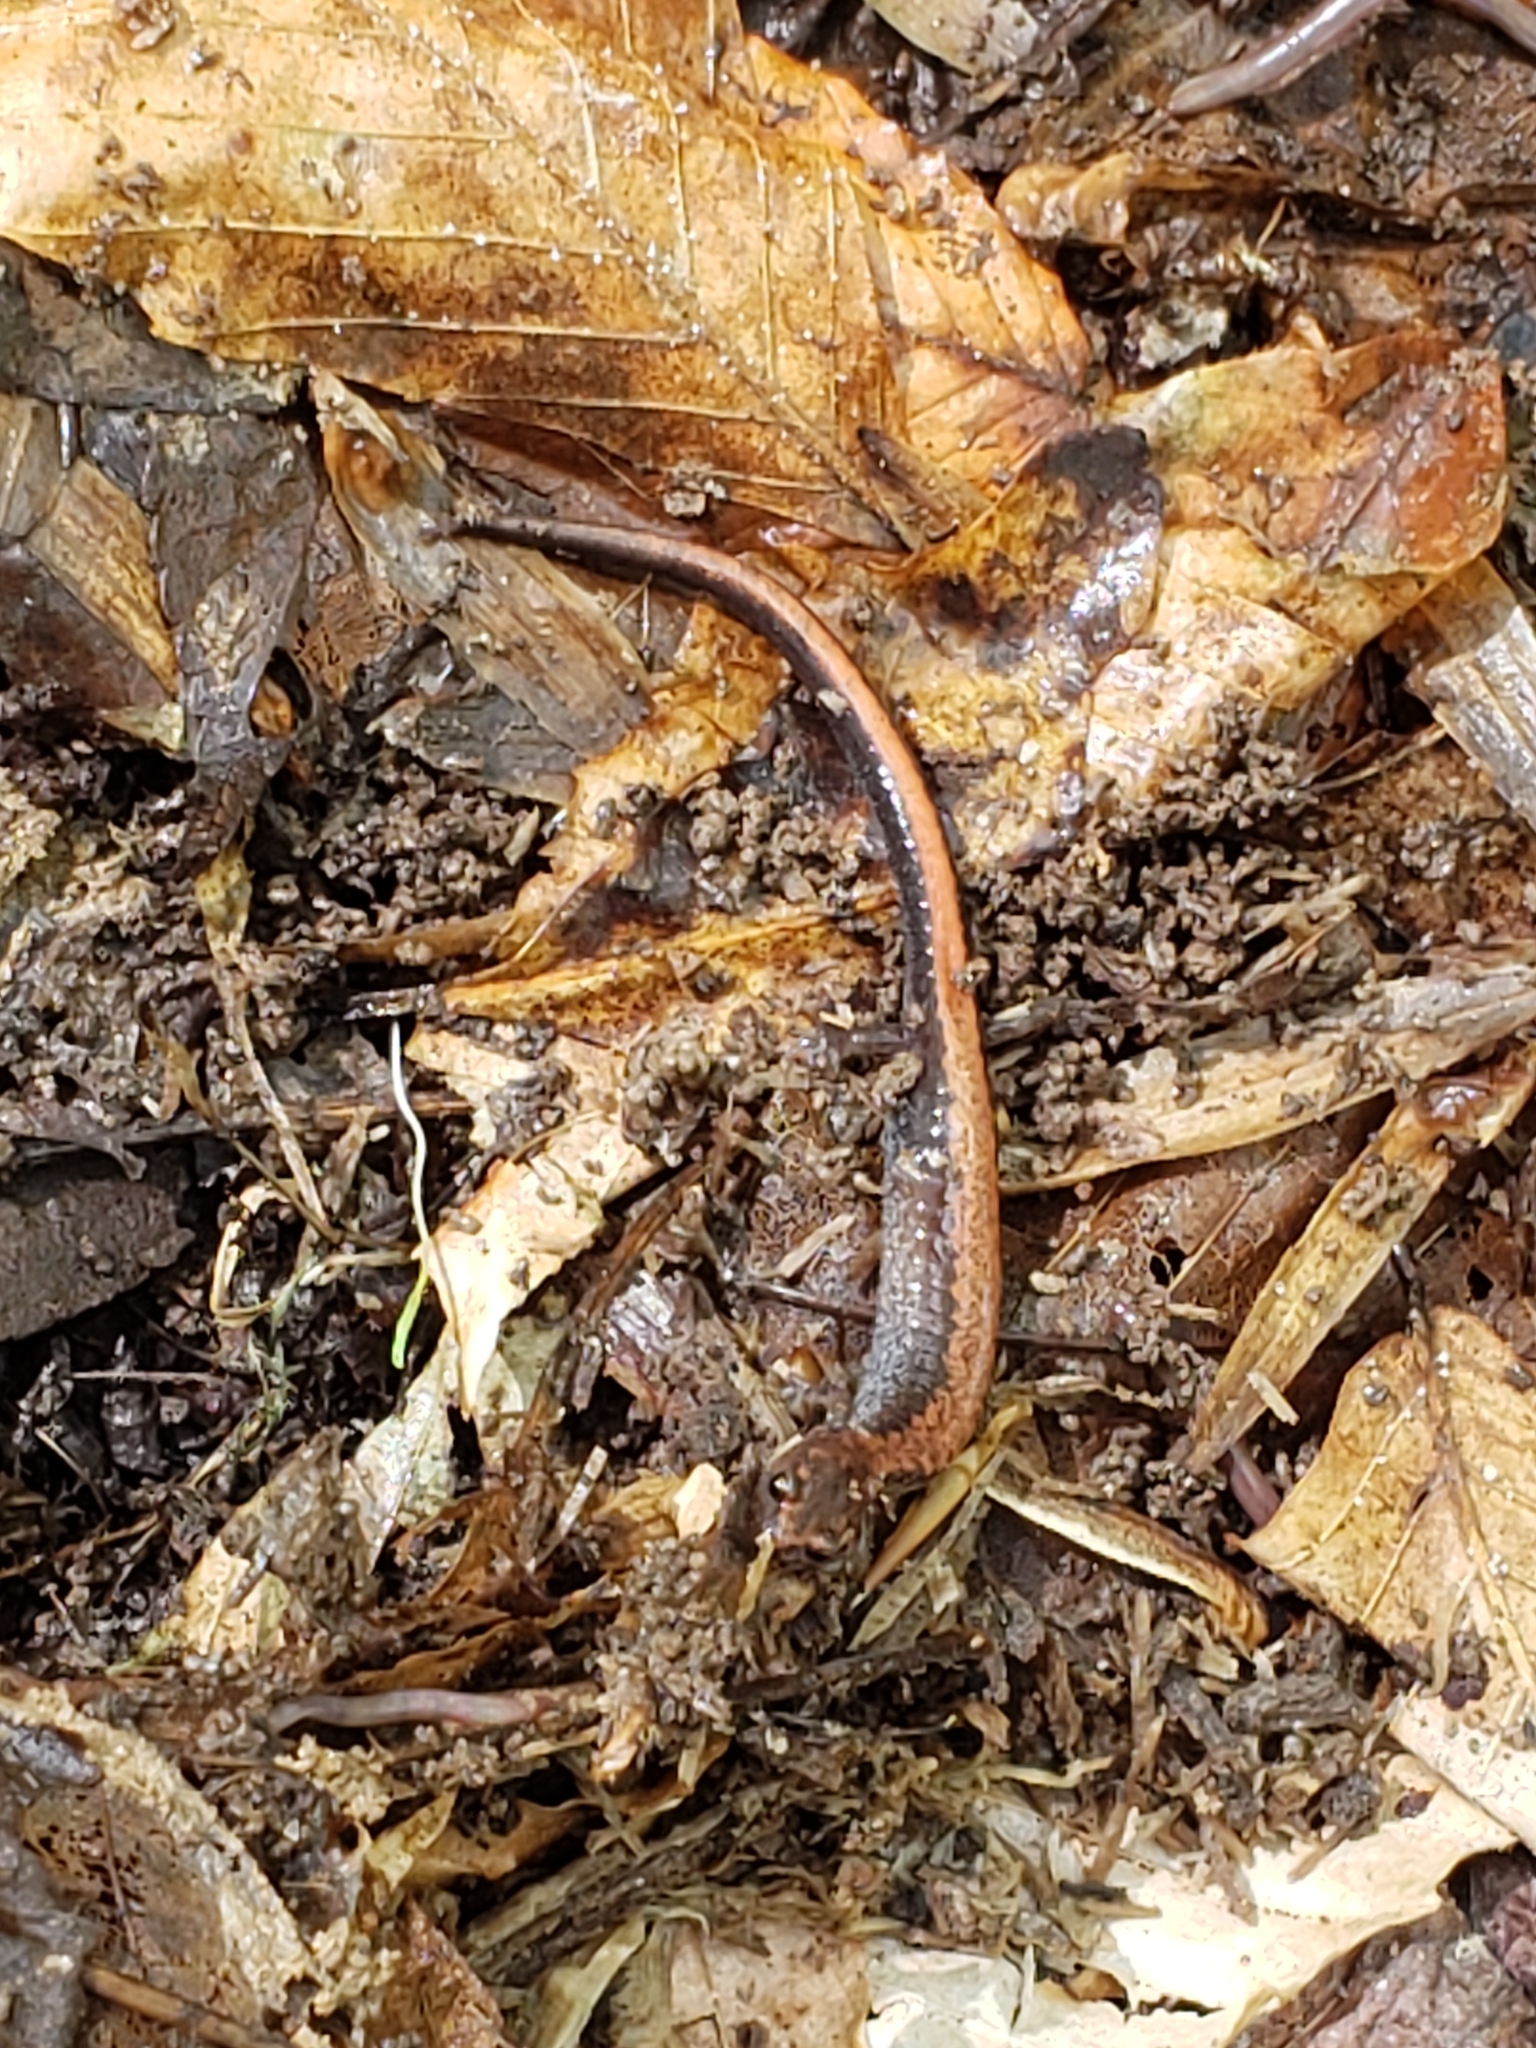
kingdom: Animalia
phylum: Chordata
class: Amphibia
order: Caudata
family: Plethodontidae
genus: Plethodon
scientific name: Plethodon cinereus
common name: Redback salamander
